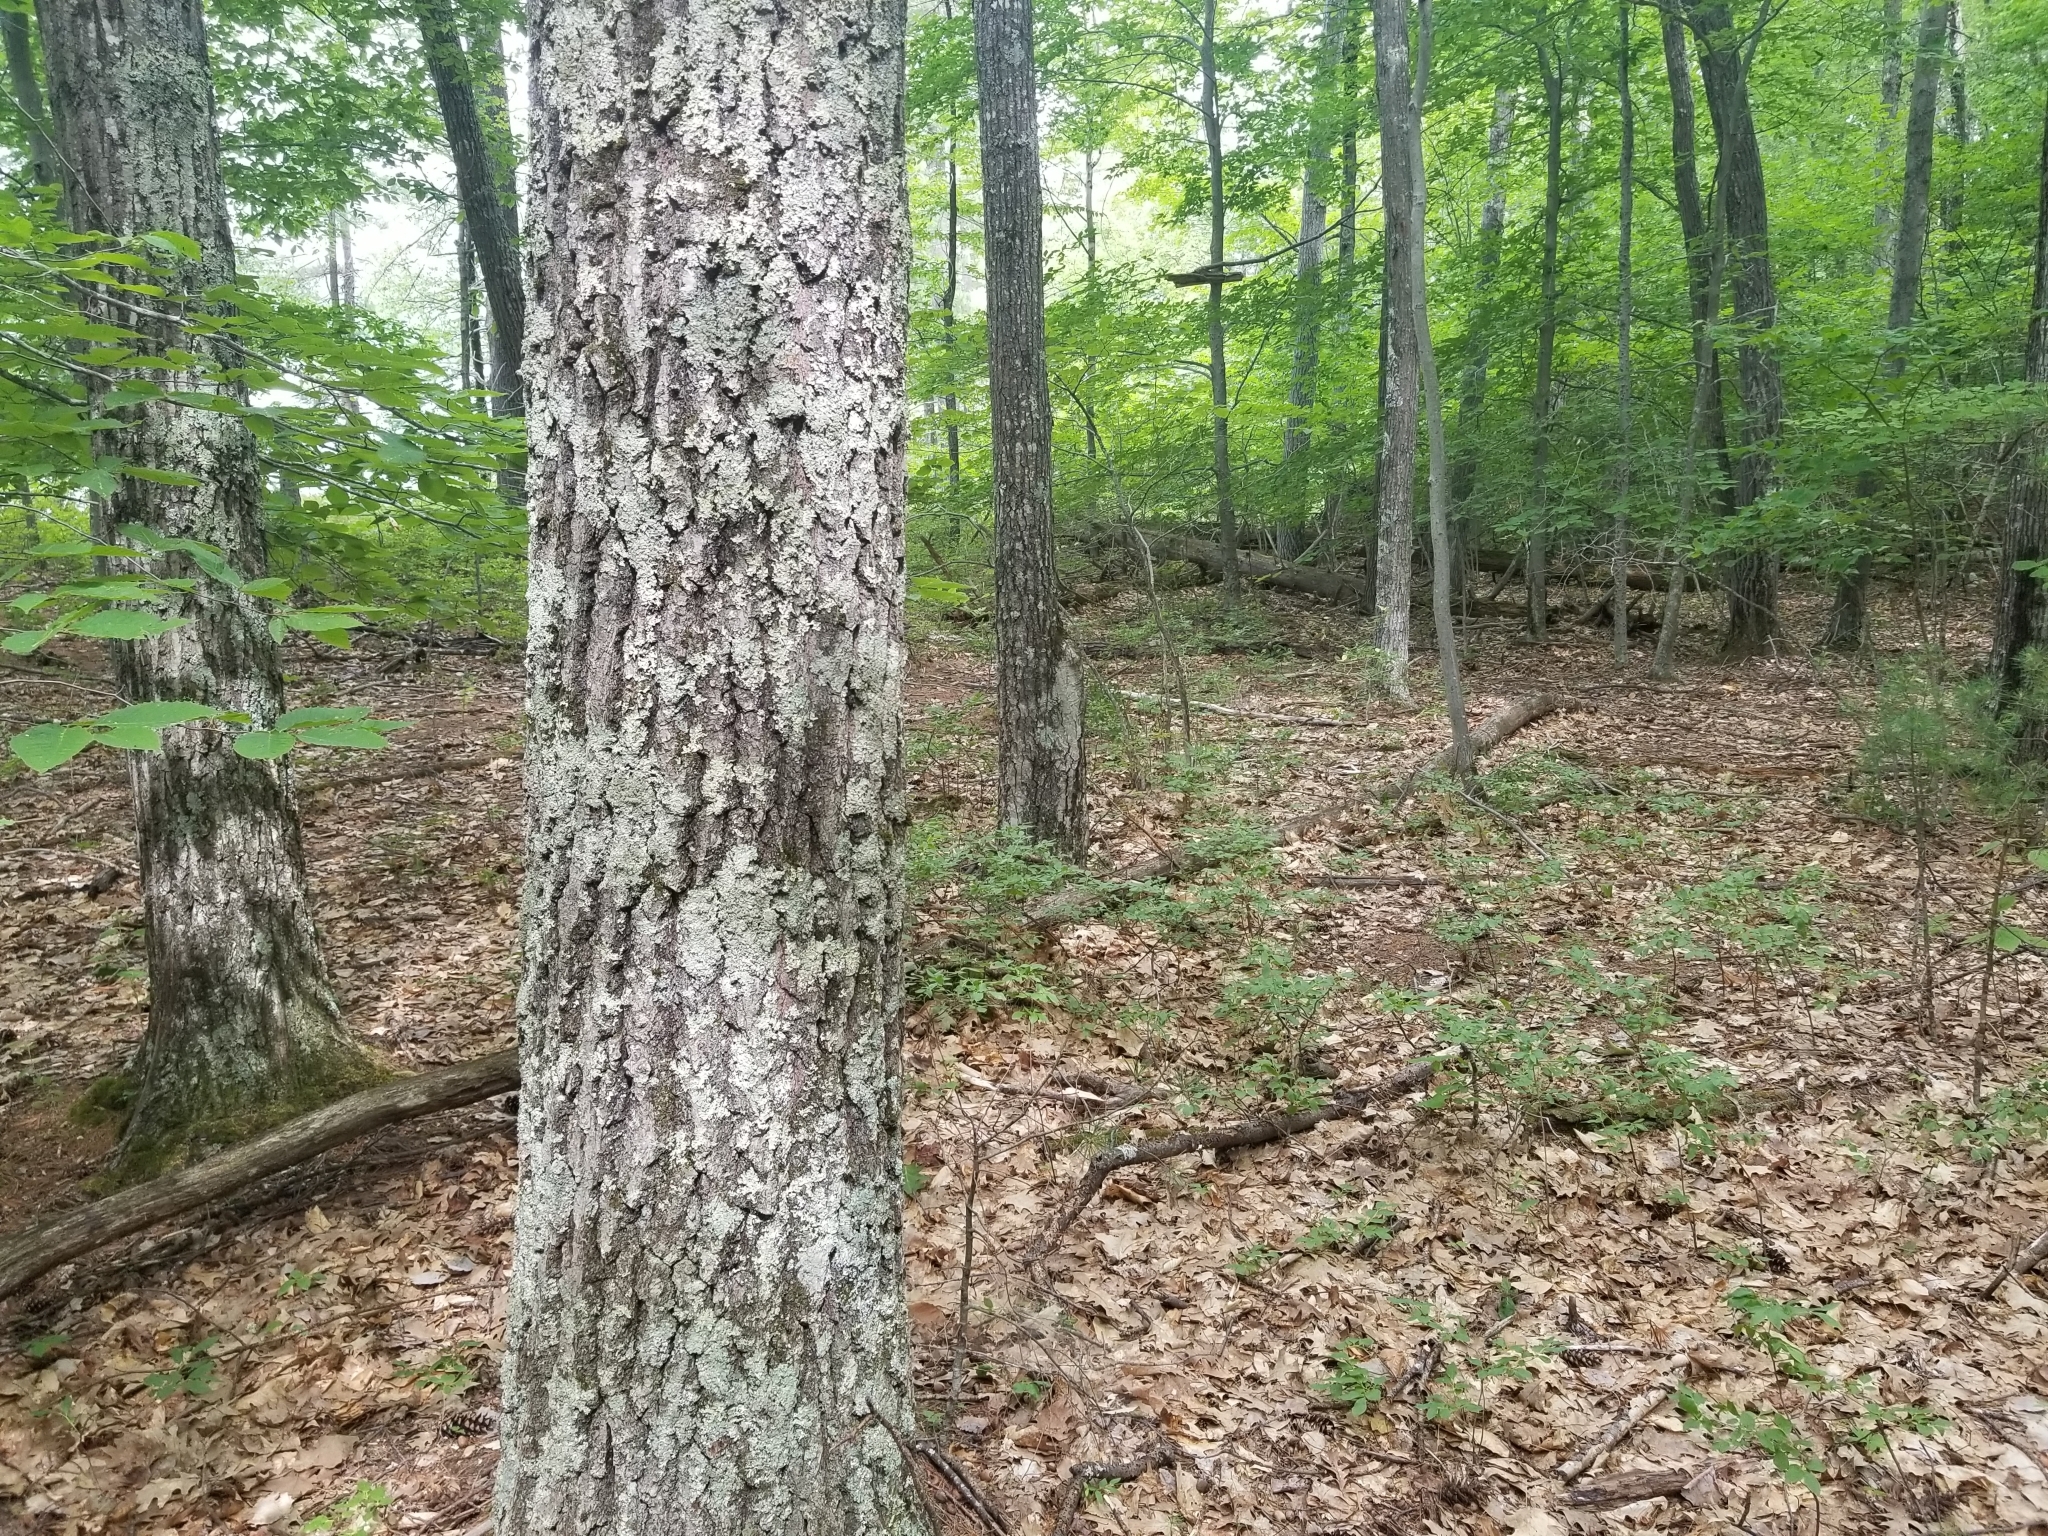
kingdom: Plantae
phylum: Tracheophyta
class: Magnoliopsida
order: Fagales
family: Fagaceae
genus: Quercus
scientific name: Quercus rubra
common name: Red oak
